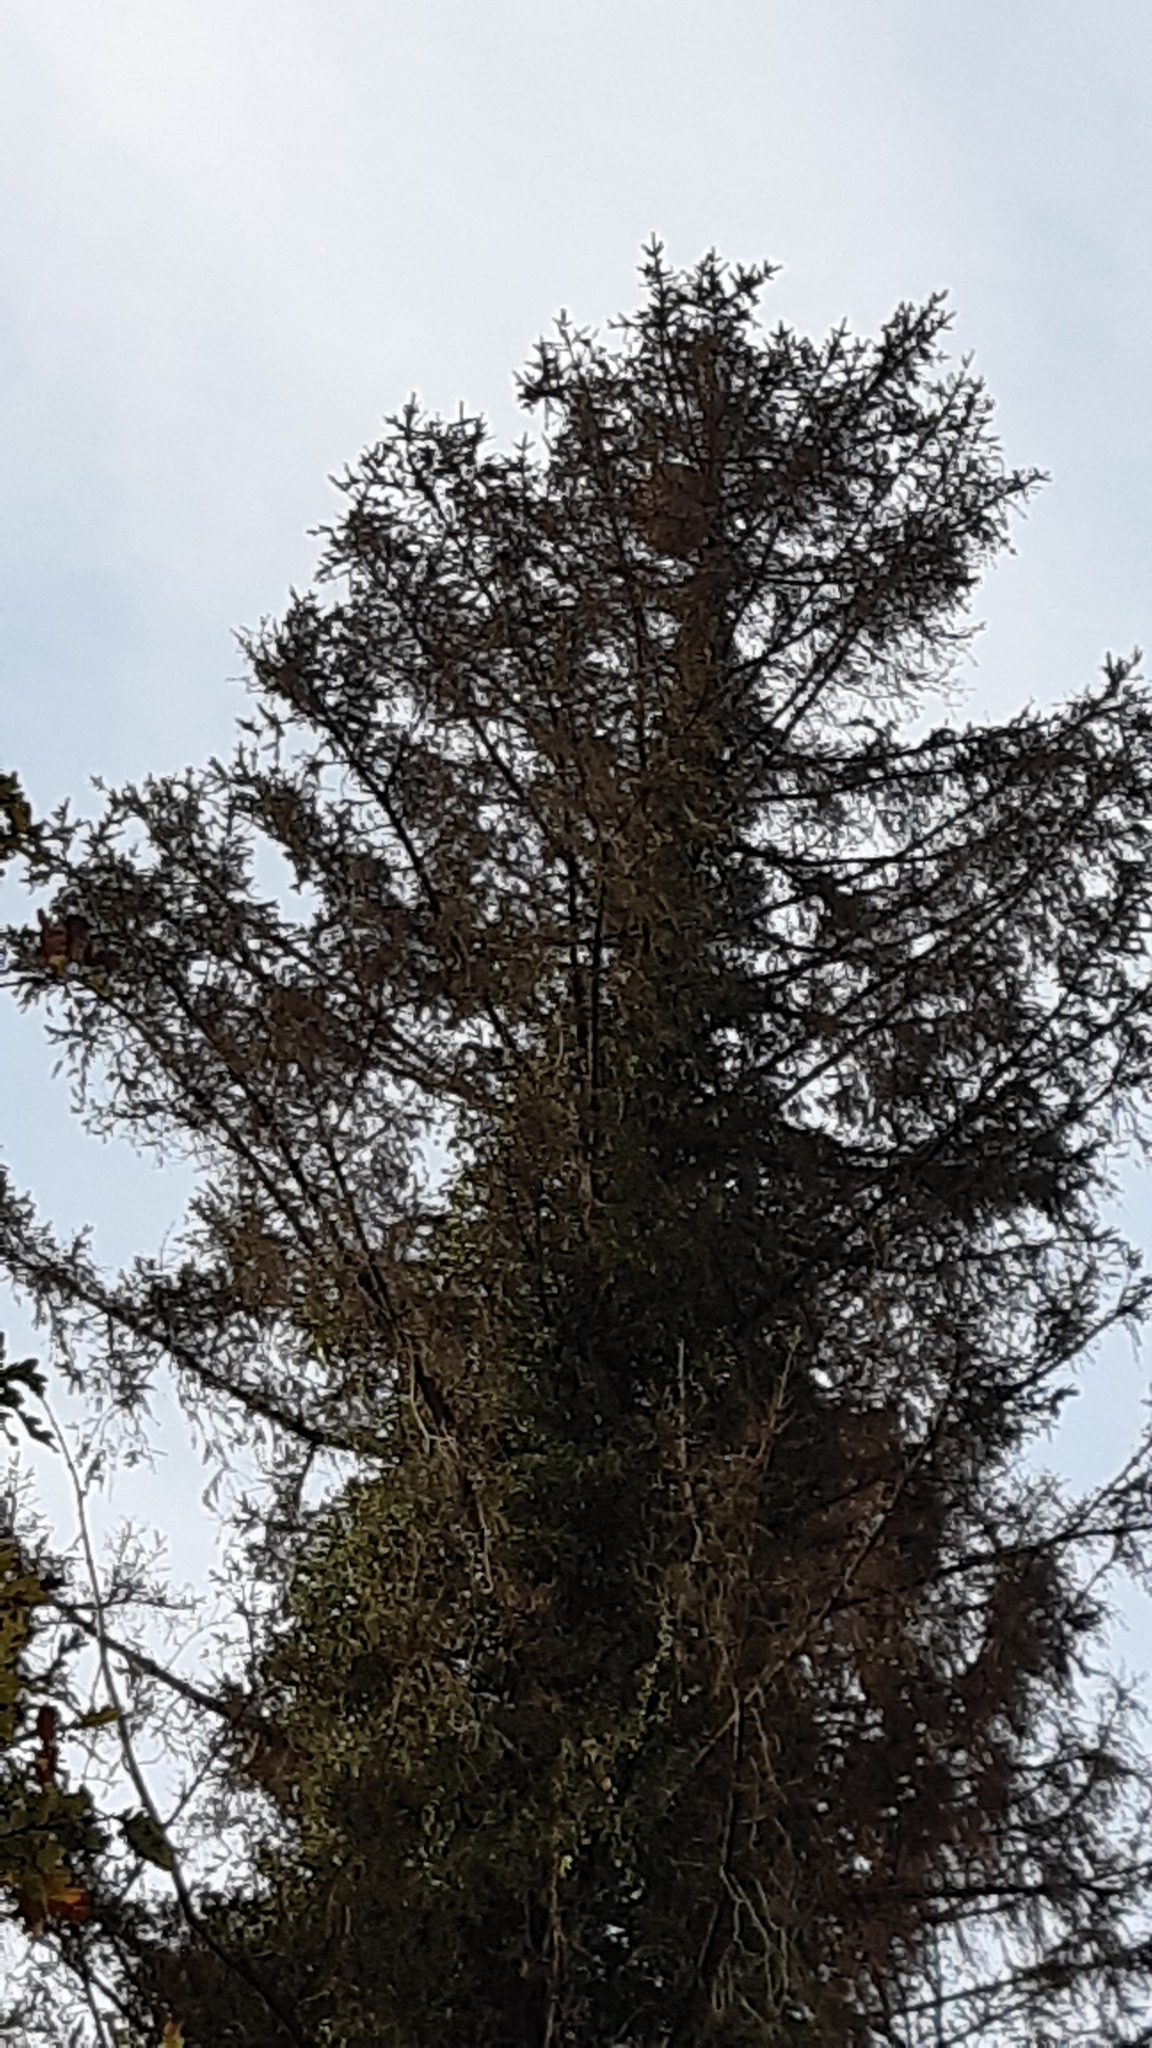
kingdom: Animalia
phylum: Arthropoda
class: Insecta
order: Hymenoptera
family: Vespidae
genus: Vespa
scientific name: Vespa velutina
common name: Asian hornet
